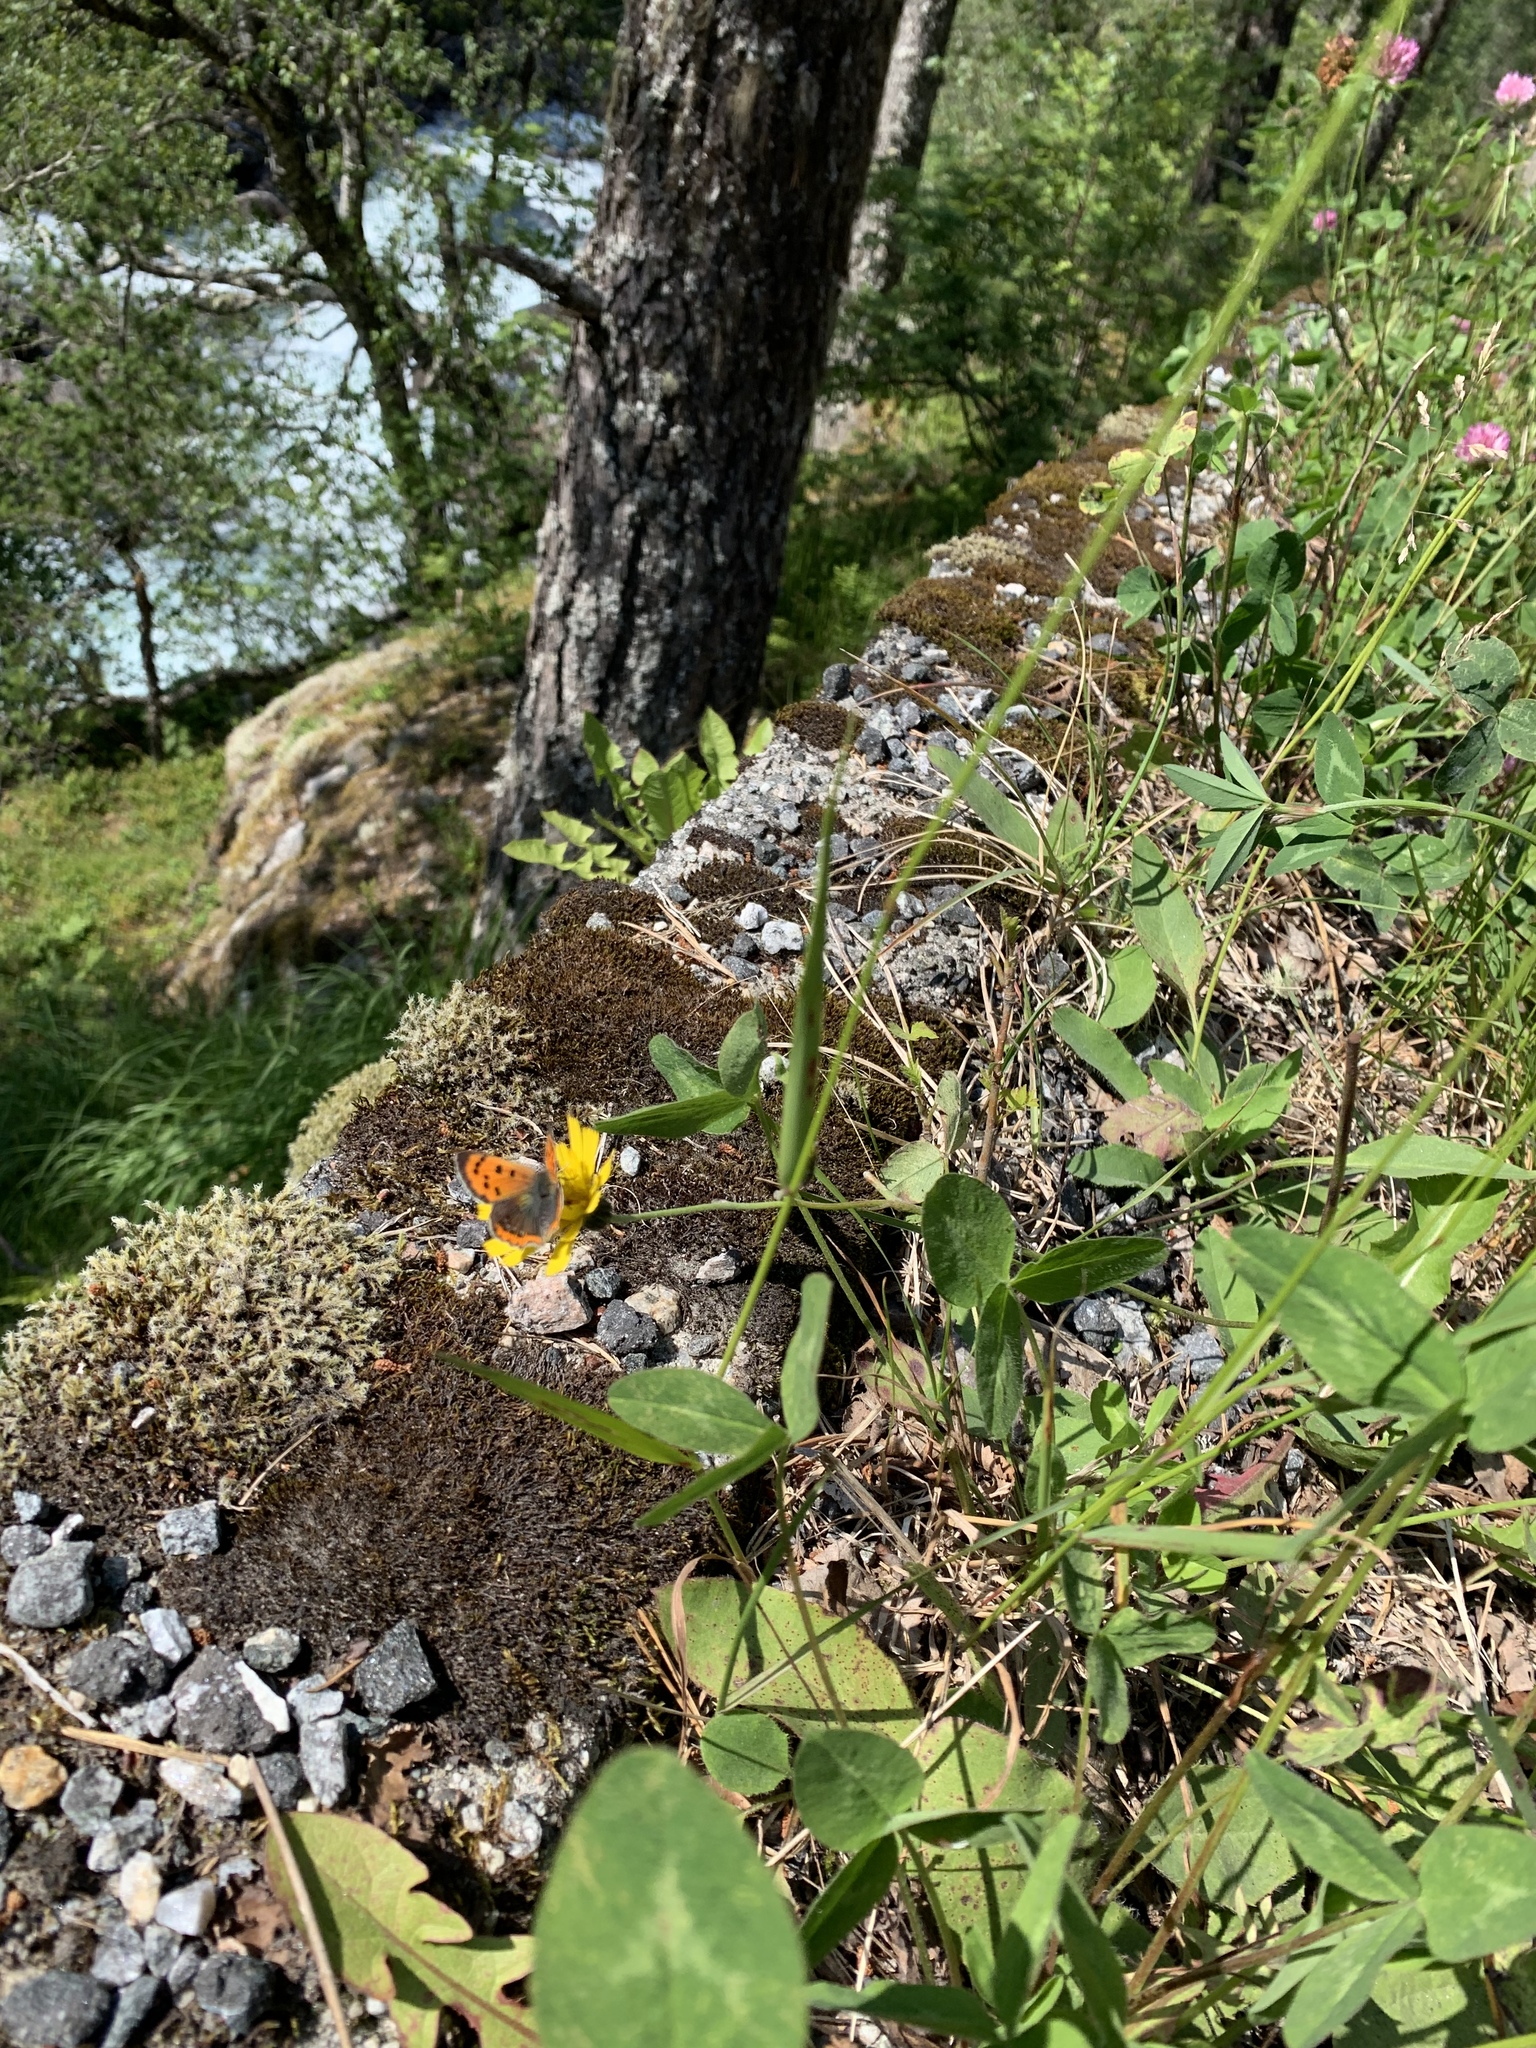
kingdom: Animalia
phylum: Arthropoda
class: Insecta
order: Lepidoptera
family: Lycaenidae
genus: Lycaena
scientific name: Lycaena phlaeas
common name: Small copper
